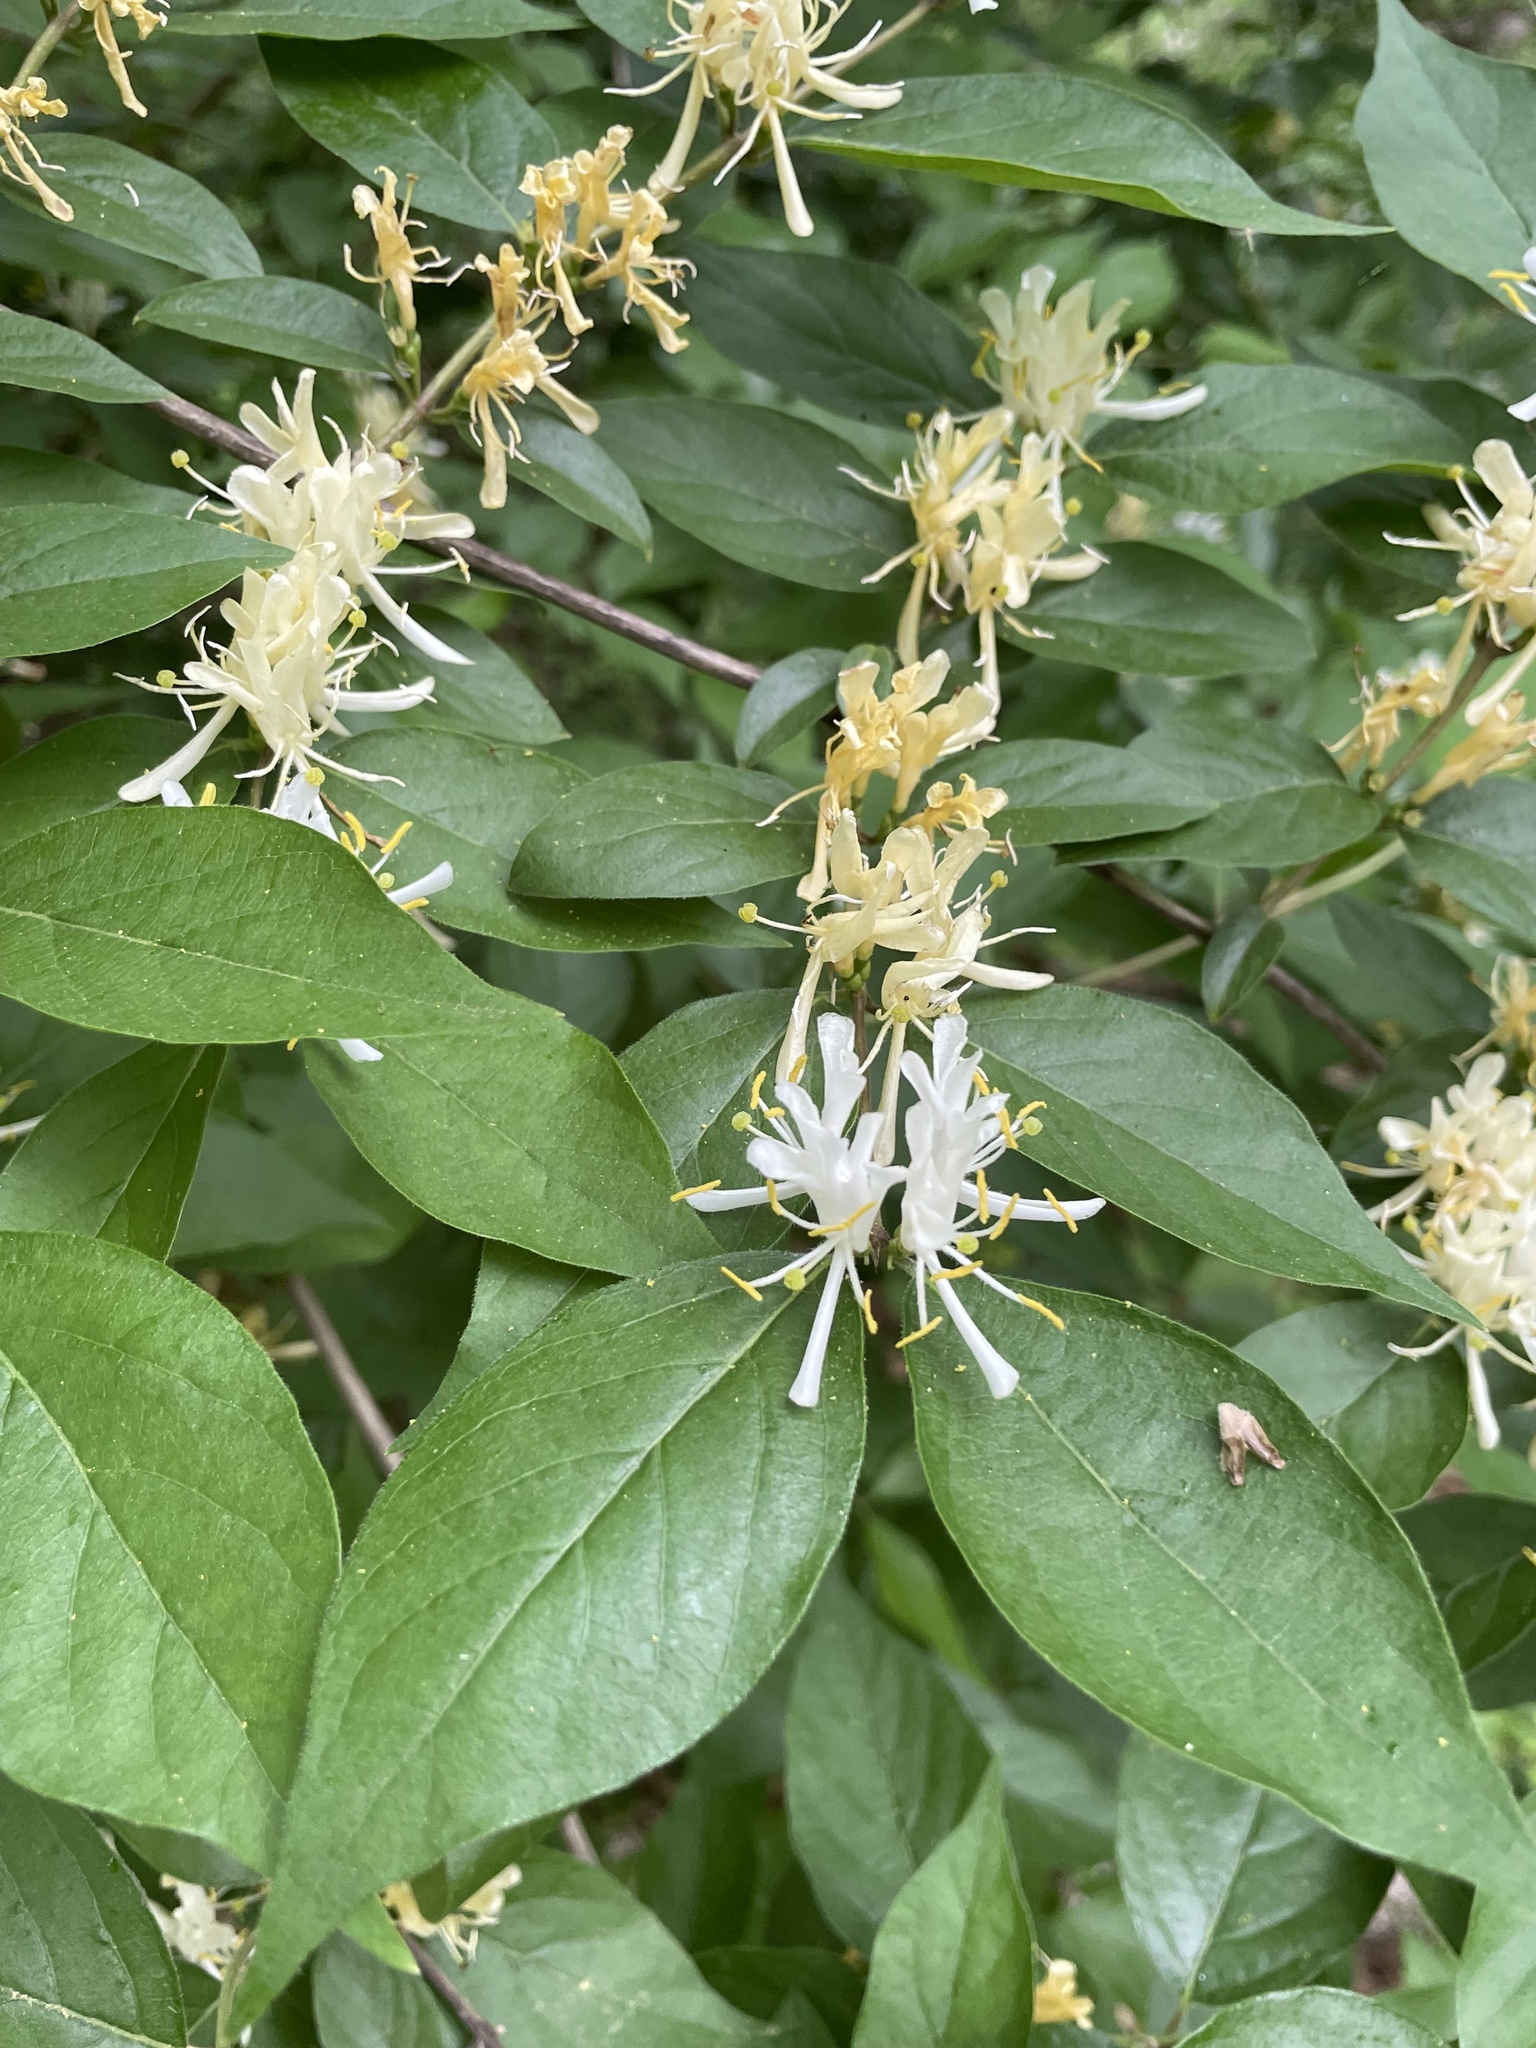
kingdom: Plantae
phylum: Tracheophyta
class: Magnoliopsida
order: Dipsacales
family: Caprifoliaceae
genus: Lonicera
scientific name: Lonicera maackii
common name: Amur honeysuckle
